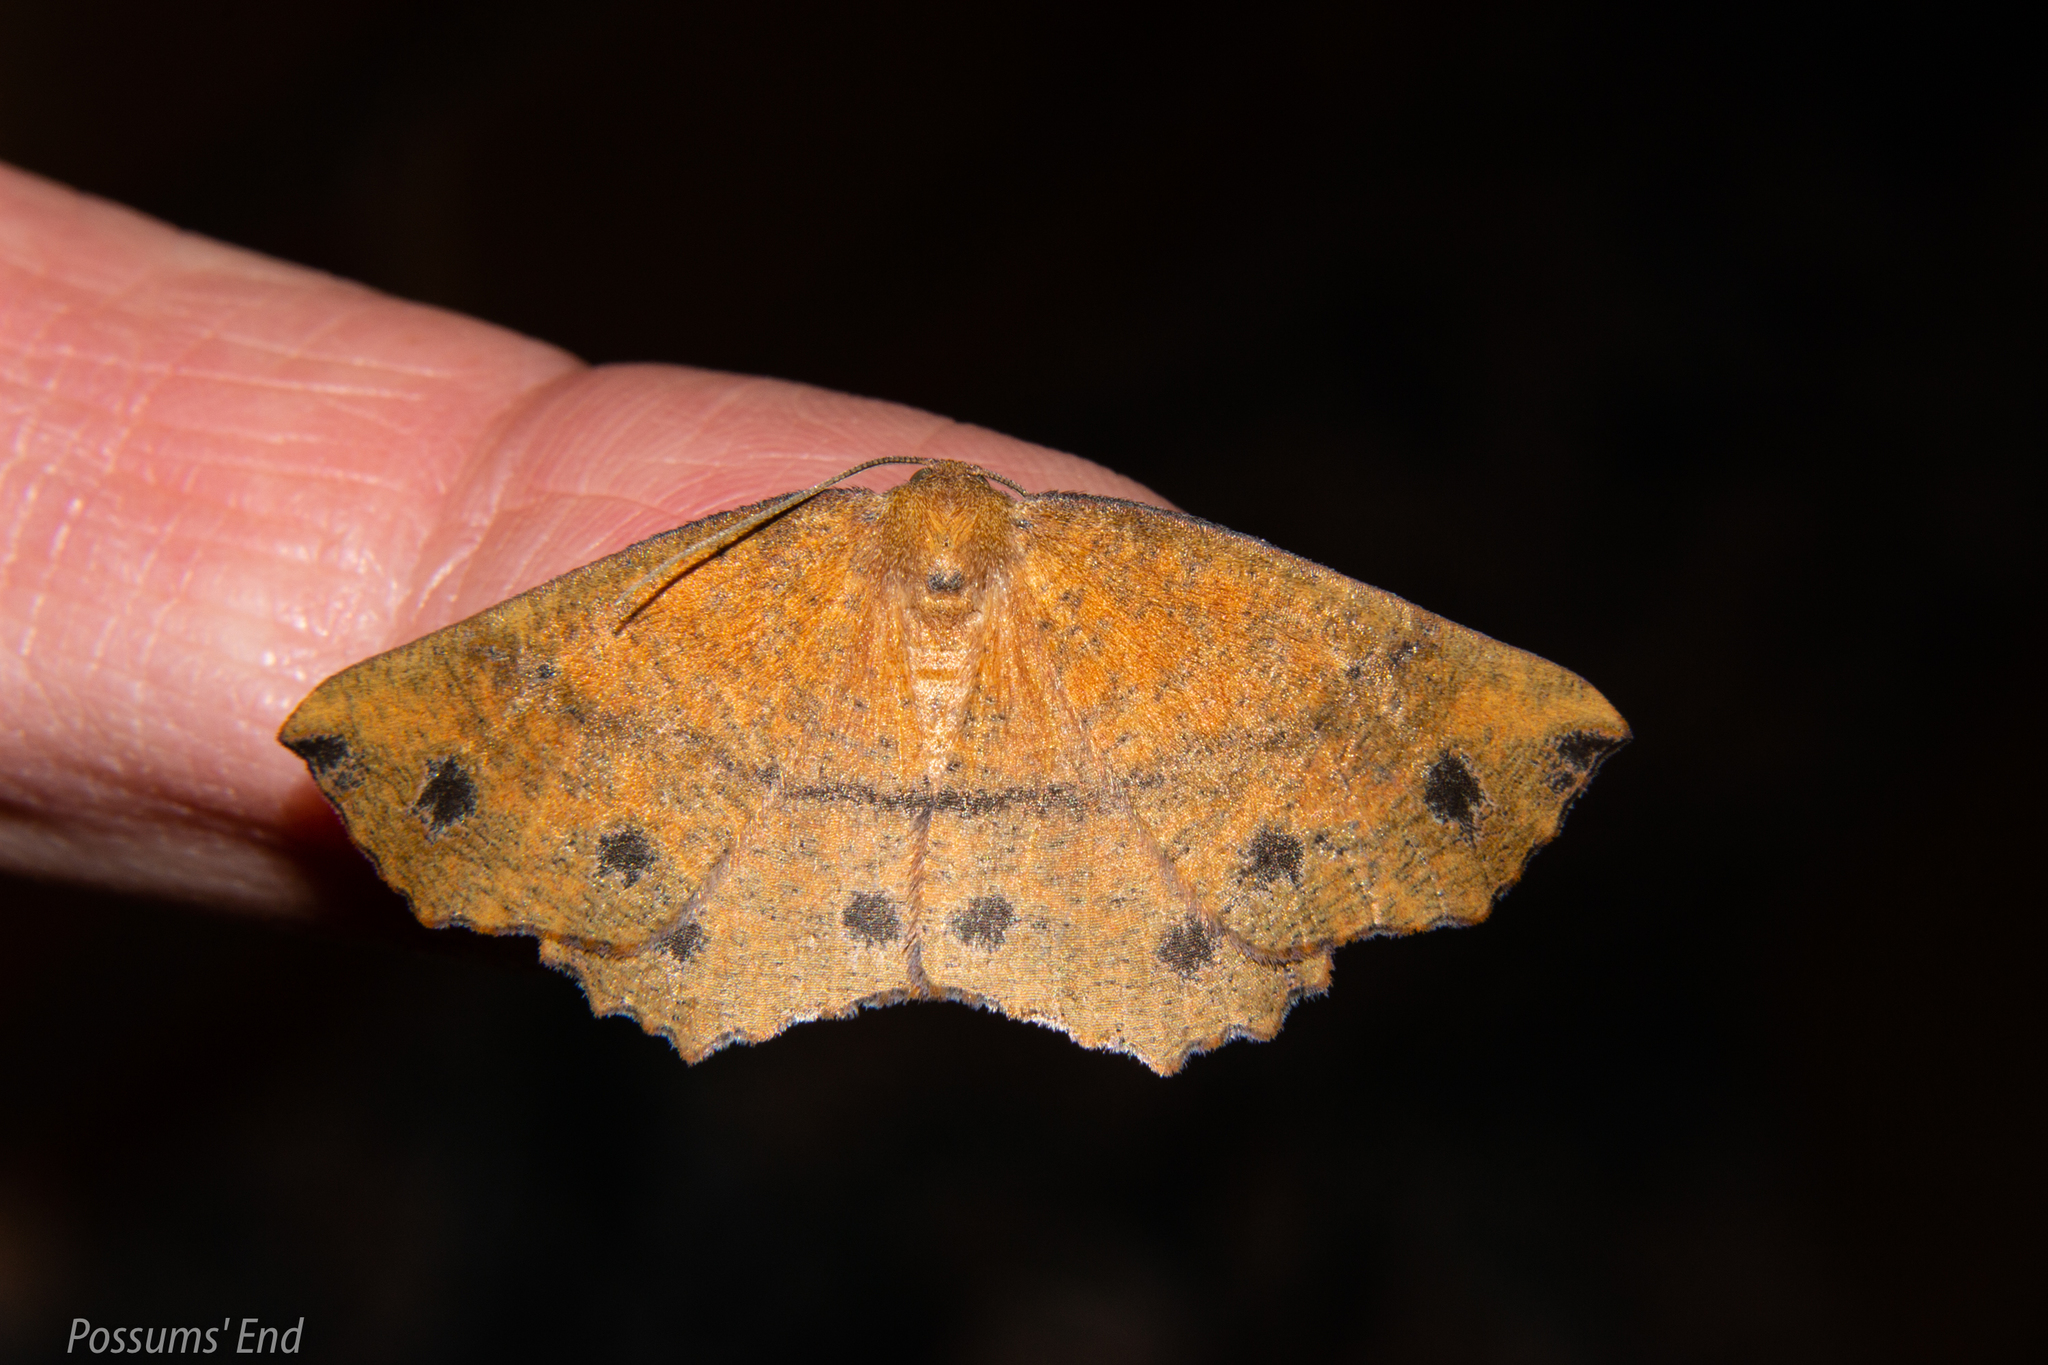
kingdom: Animalia
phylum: Arthropoda
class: Insecta
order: Lepidoptera
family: Geometridae
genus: Xyridacma
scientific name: Xyridacma ustaria
